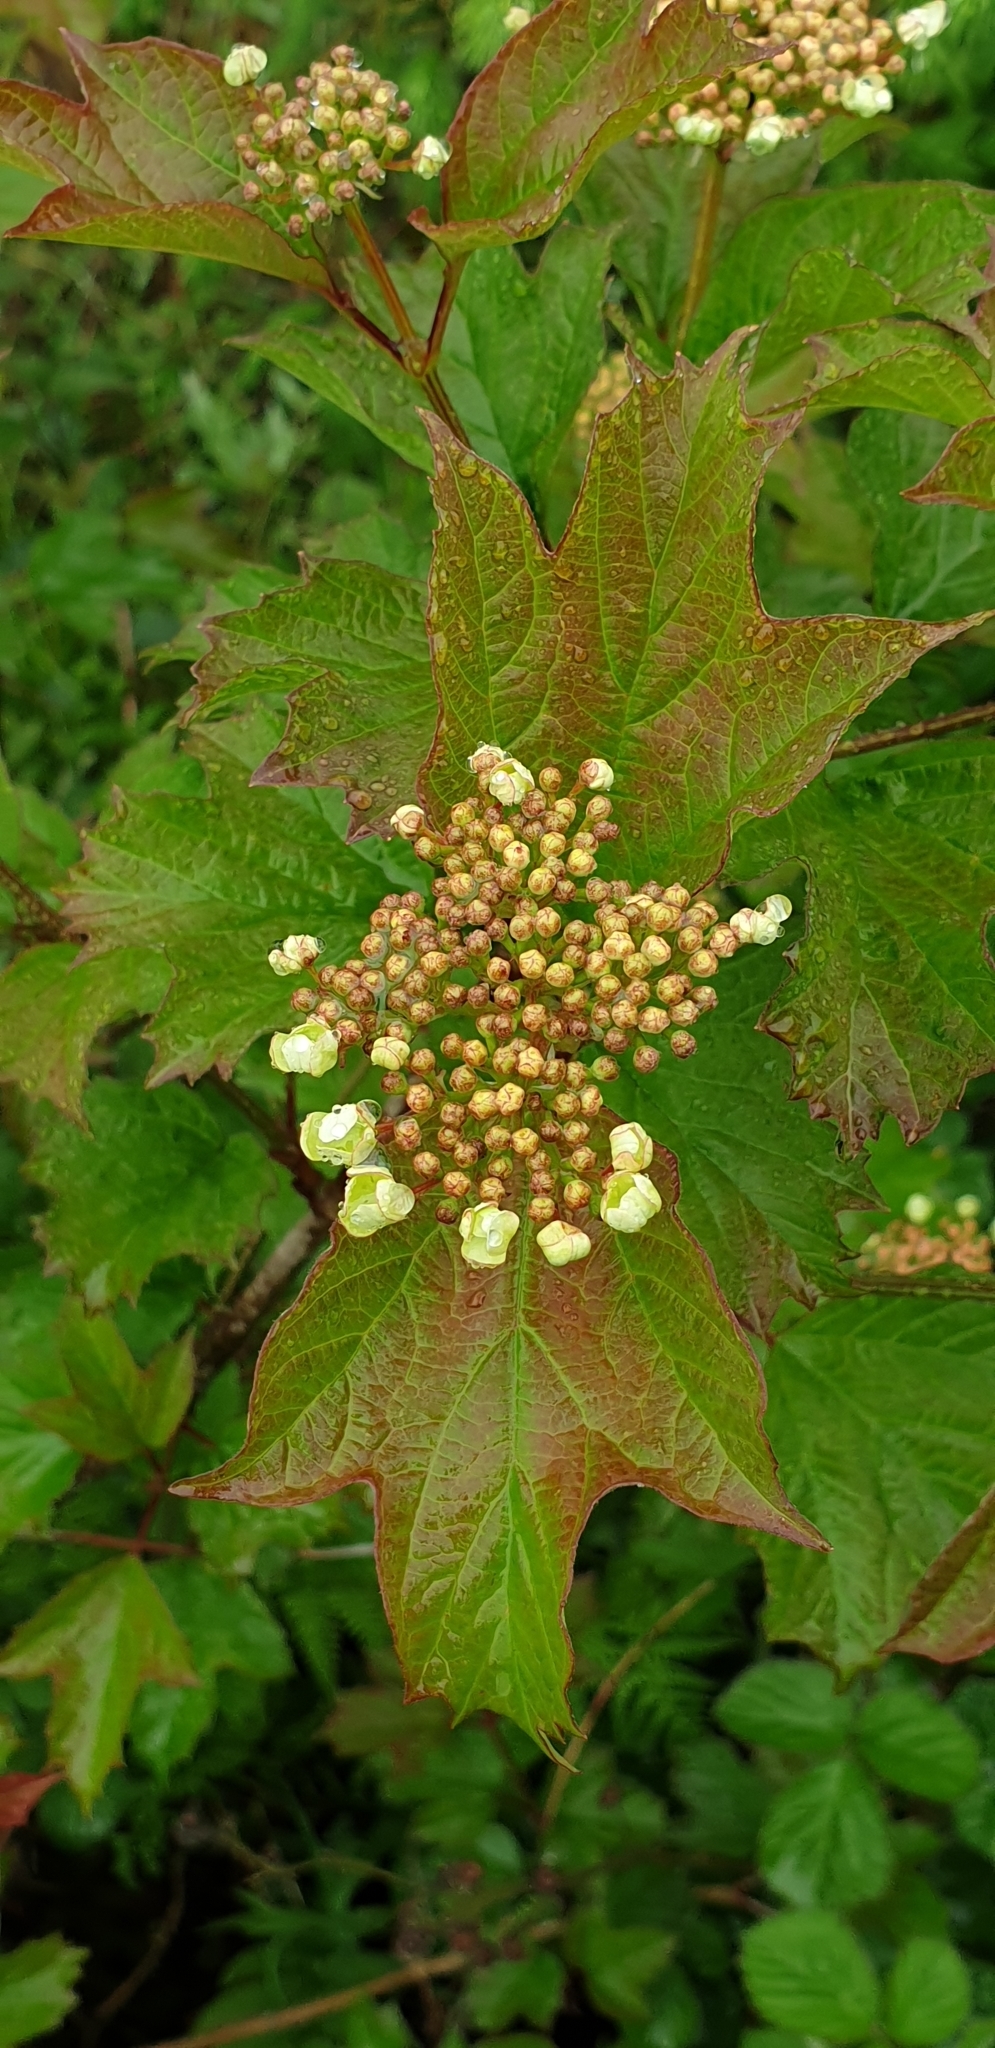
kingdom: Plantae
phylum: Tracheophyta
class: Magnoliopsida
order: Dipsacales
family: Viburnaceae
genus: Viburnum
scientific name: Viburnum opulus
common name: Guelder-rose
